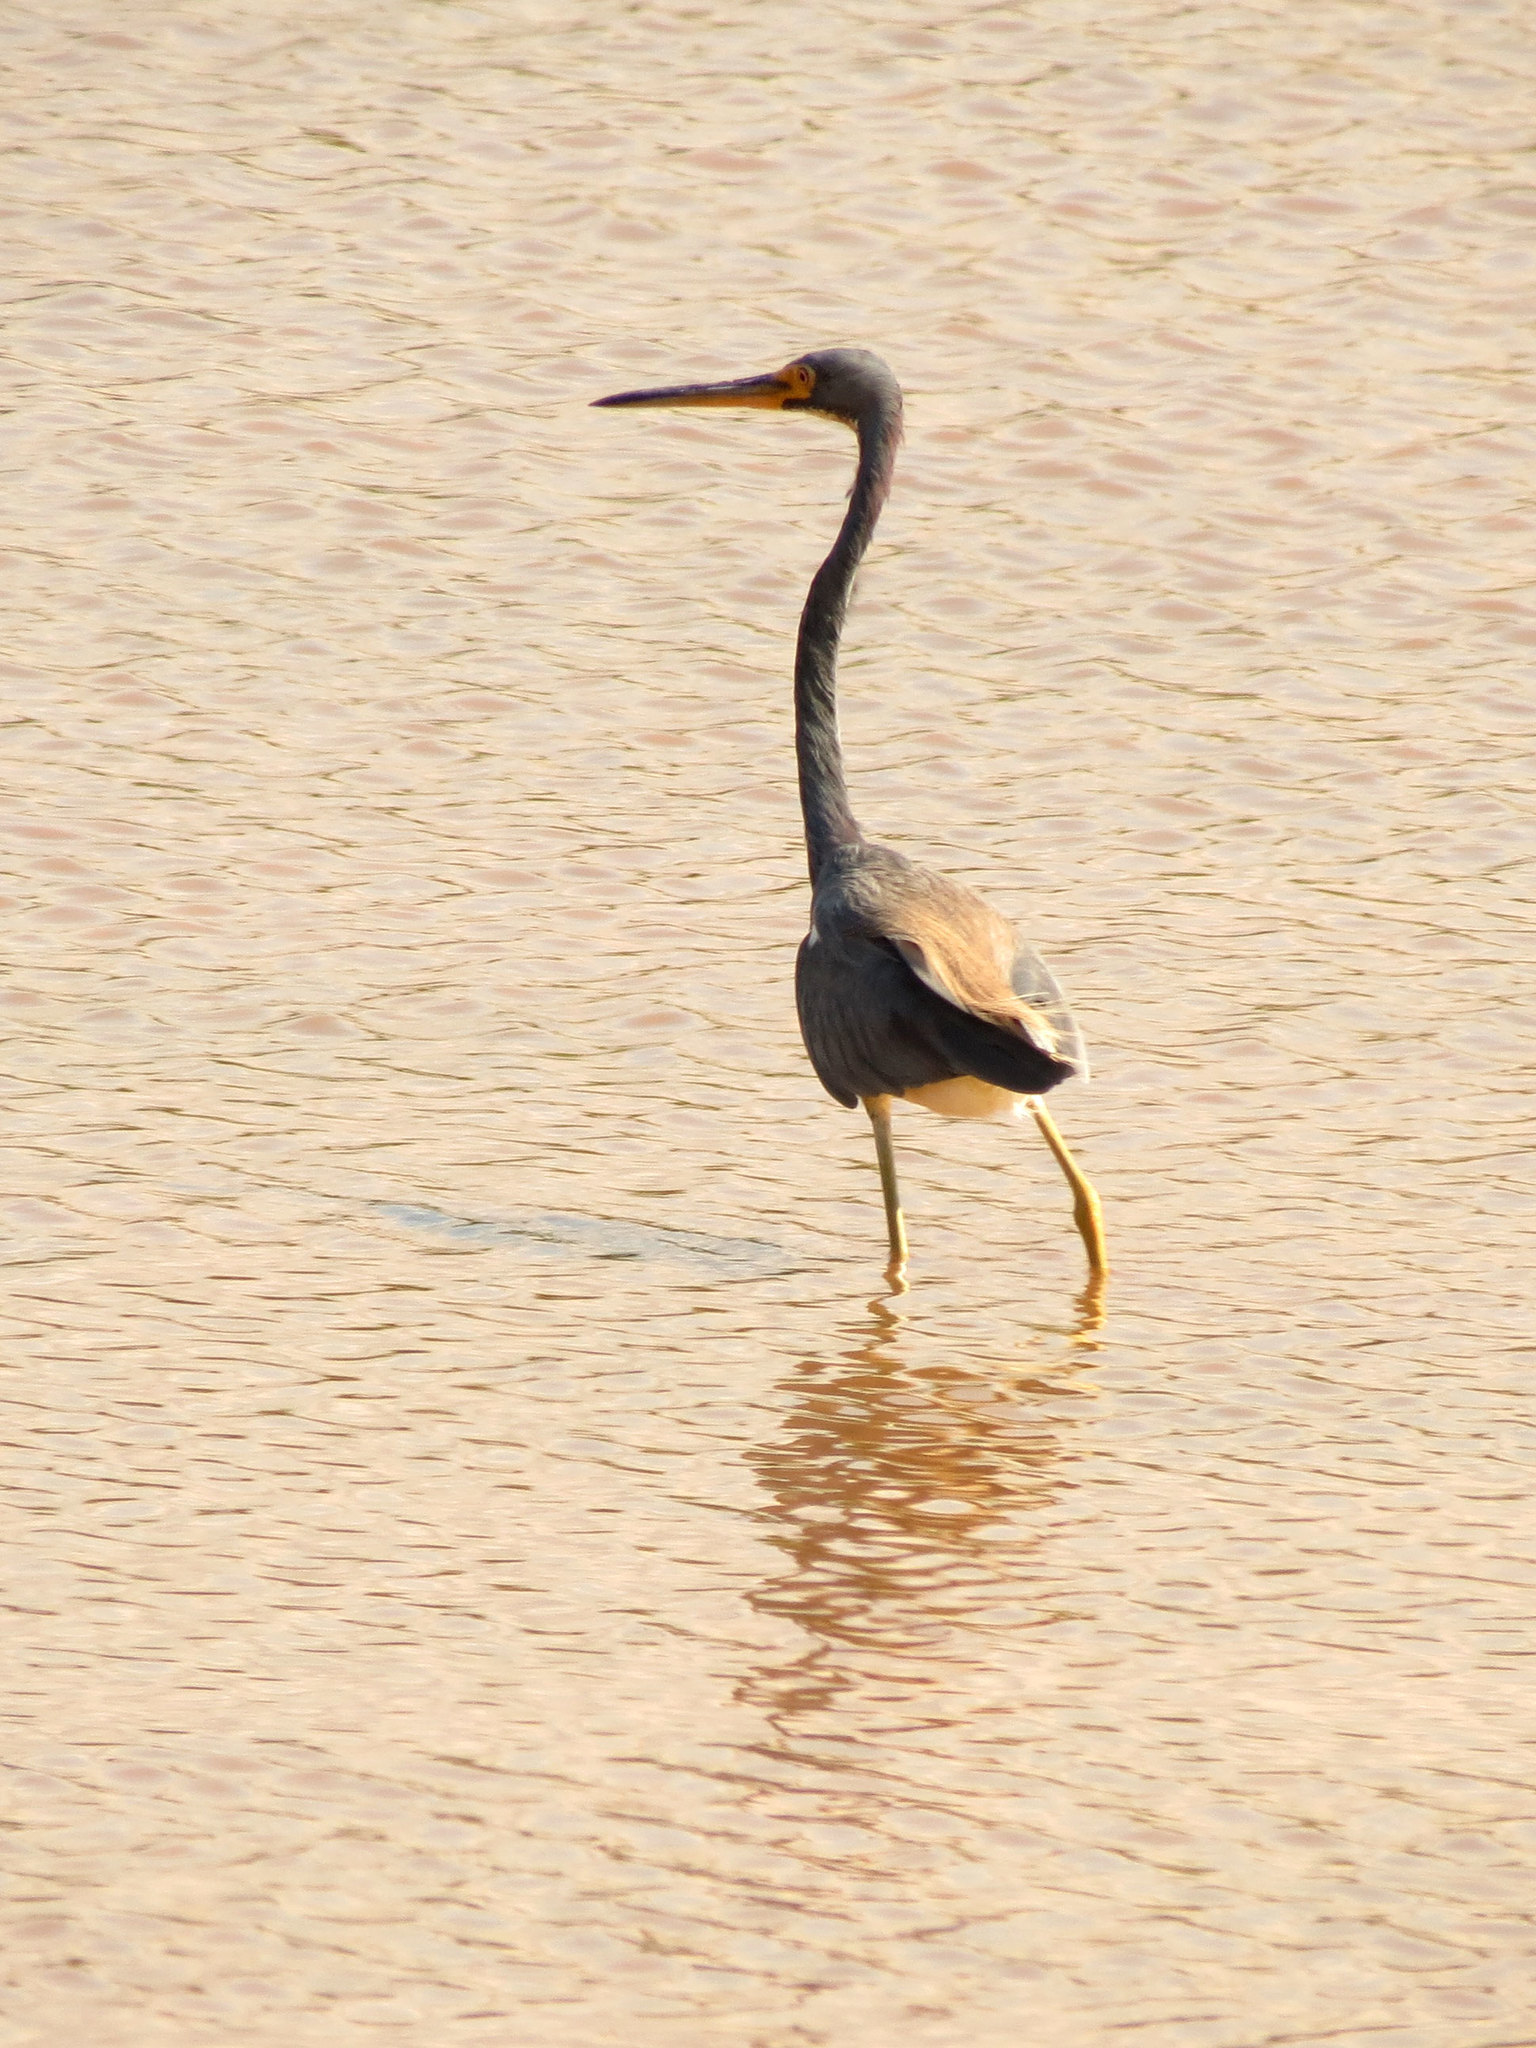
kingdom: Animalia
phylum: Chordata
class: Aves
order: Pelecaniformes
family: Ardeidae
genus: Egretta
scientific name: Egretta tricolor
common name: Tricolored heron
